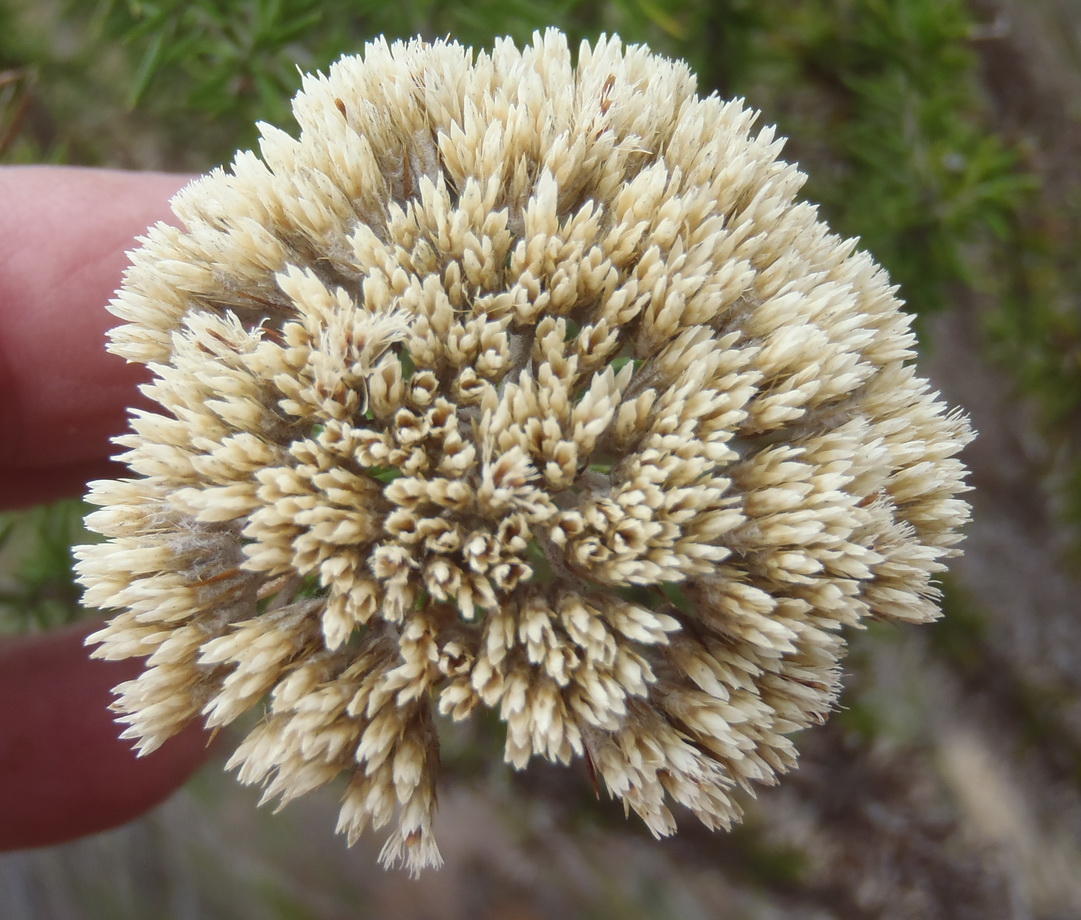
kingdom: Plantae
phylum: Tracheophyta
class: Magnoliopsida
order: Asterales
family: Asteraceae
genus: Metalasia
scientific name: Metalasia acuta
